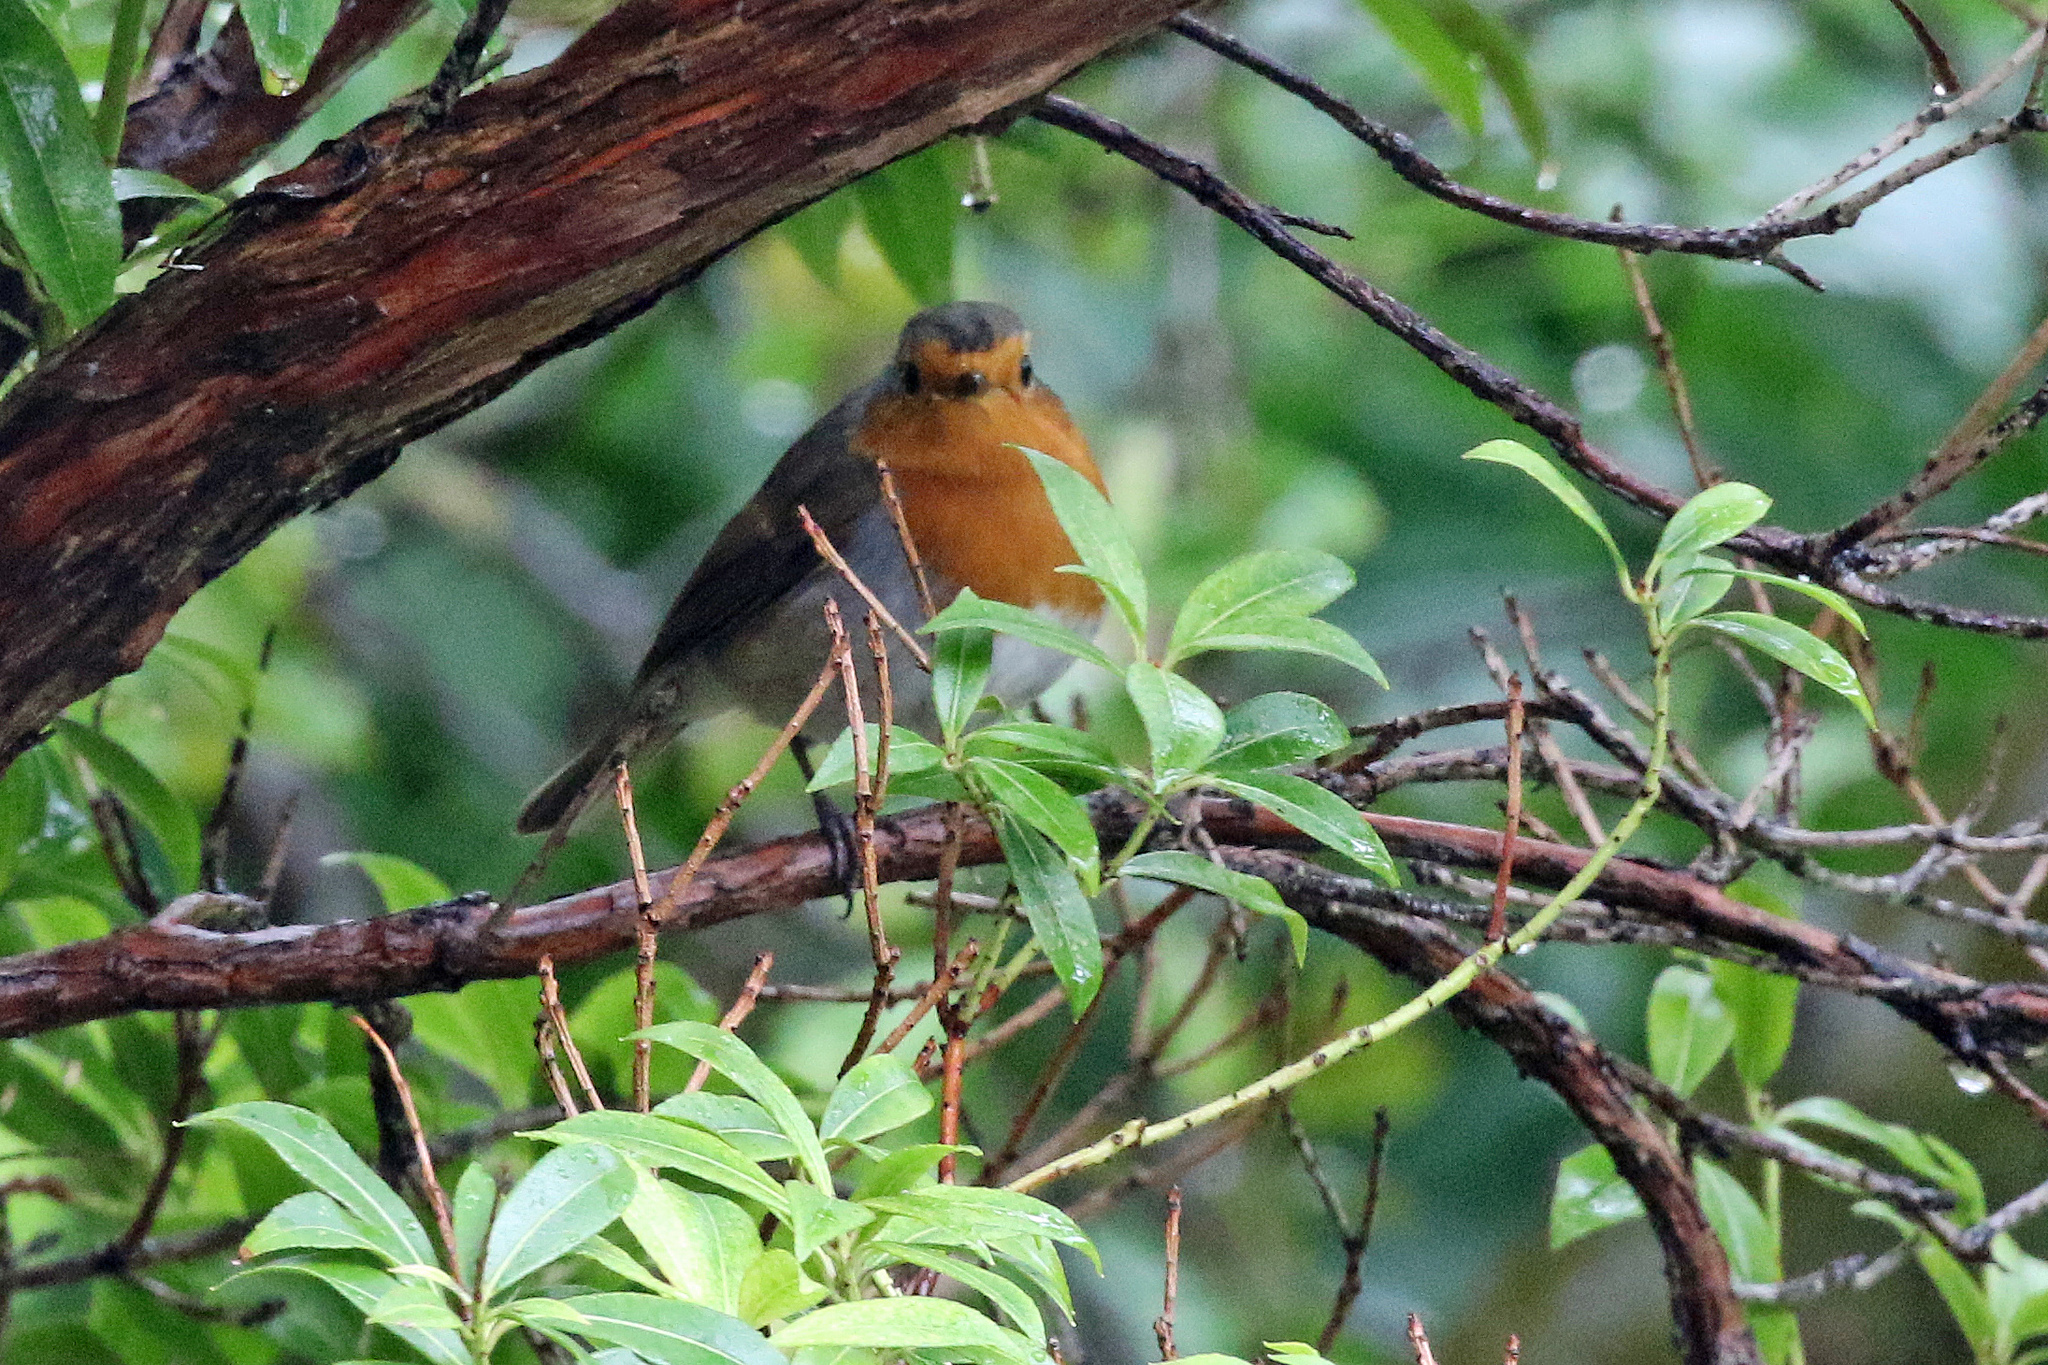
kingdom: Animalia
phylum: Chordata
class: Aves
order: Passeriformes
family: Muscicapidae
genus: Erithacus
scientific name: Erithacus rubecula
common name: European robin
